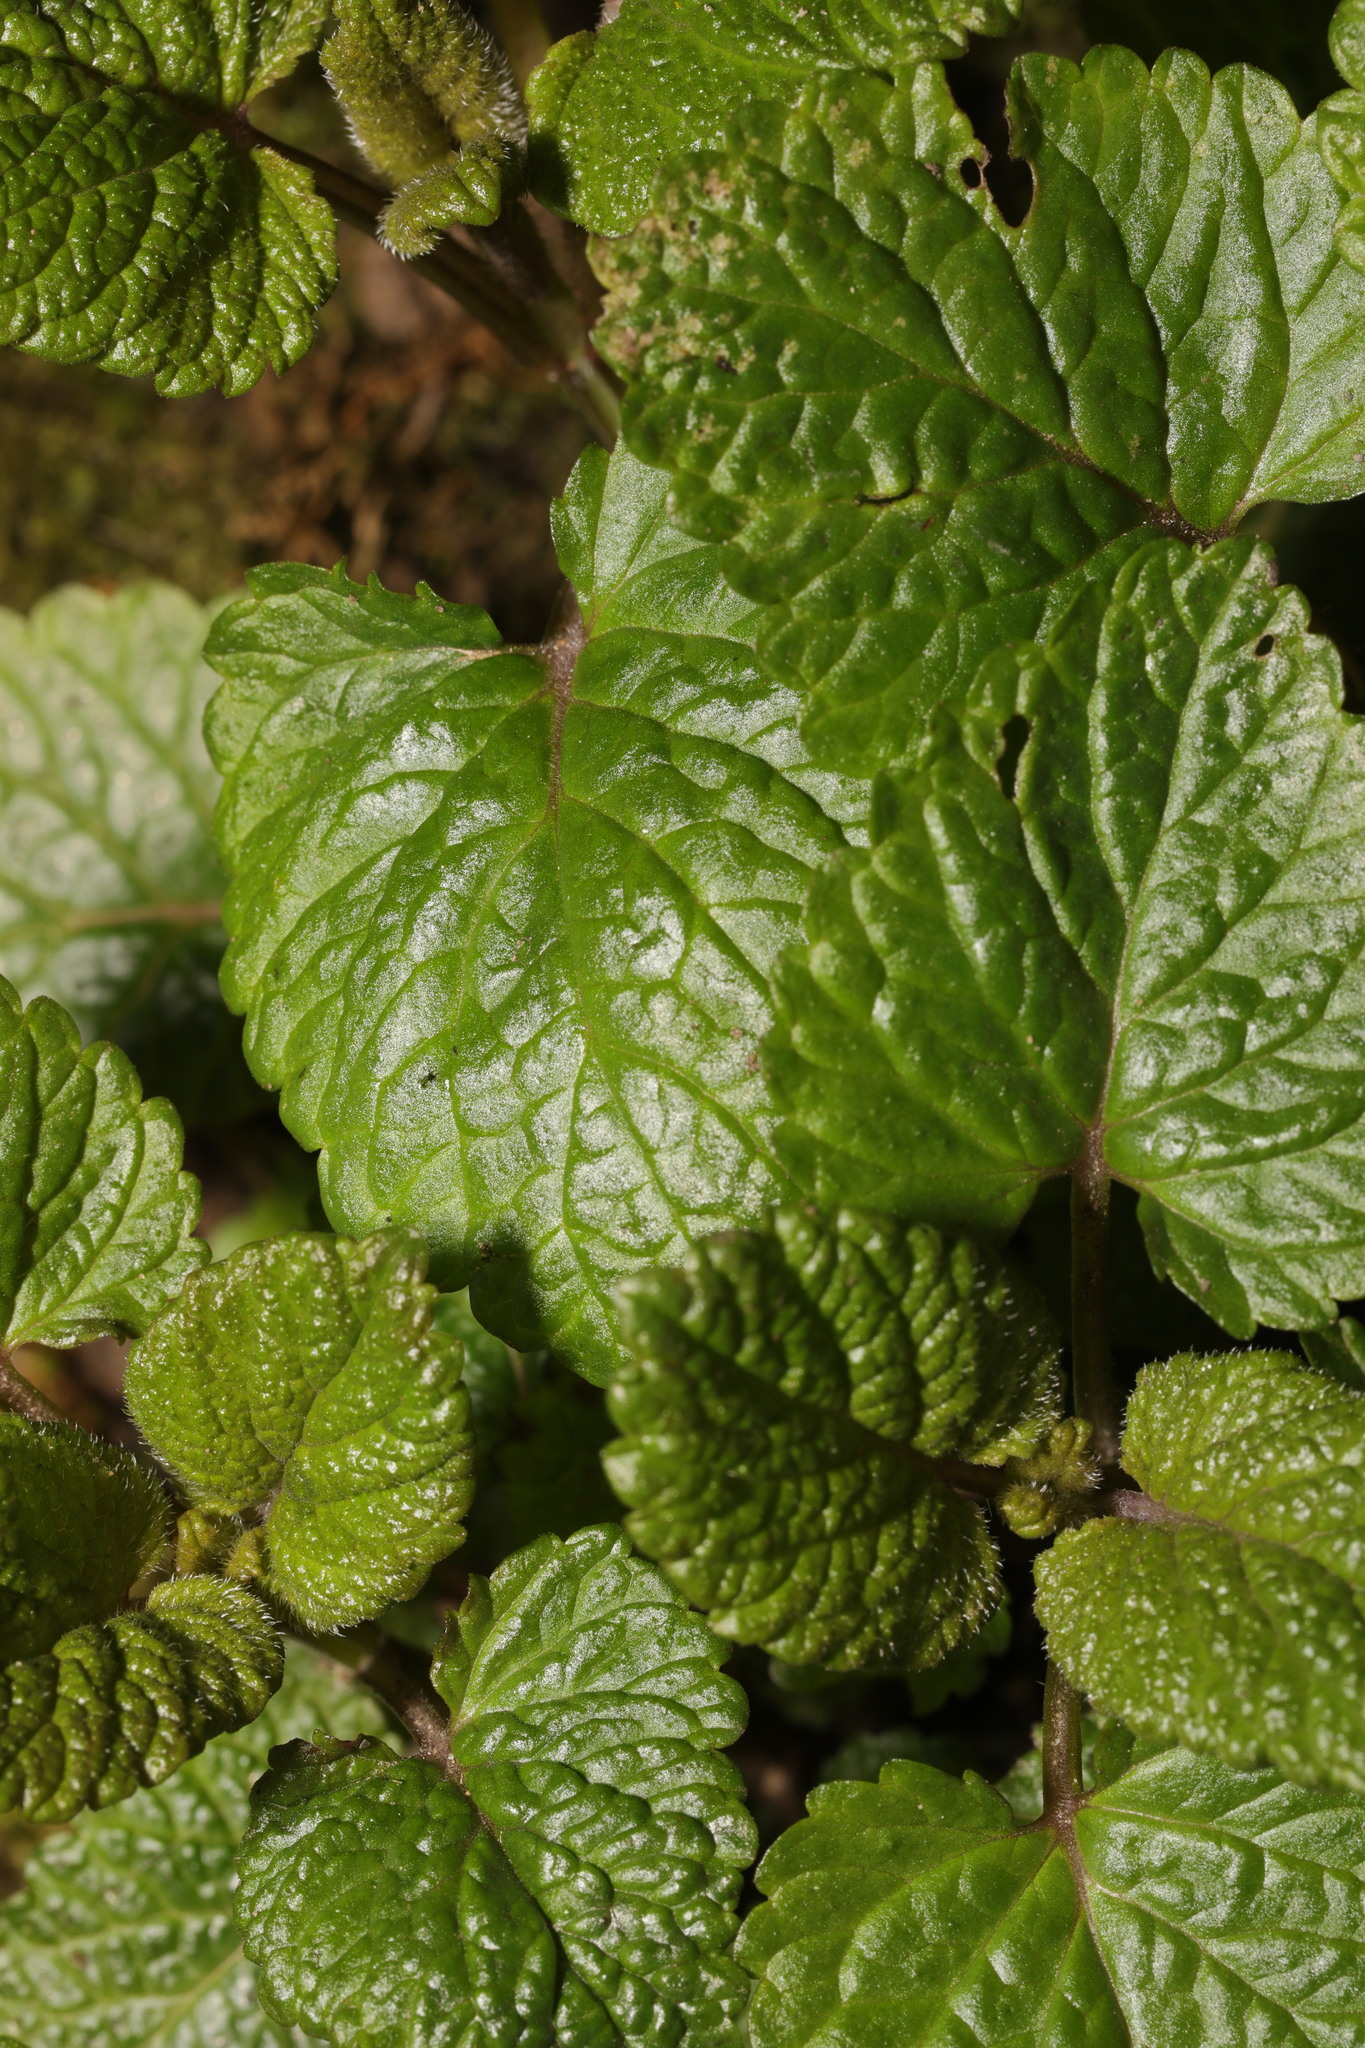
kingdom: Plantae
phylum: Tracheophyta
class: Magnoliopsida
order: Lamiales
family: Lamiaceae
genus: Melissa
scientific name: Melissa officinalis
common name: Balm
